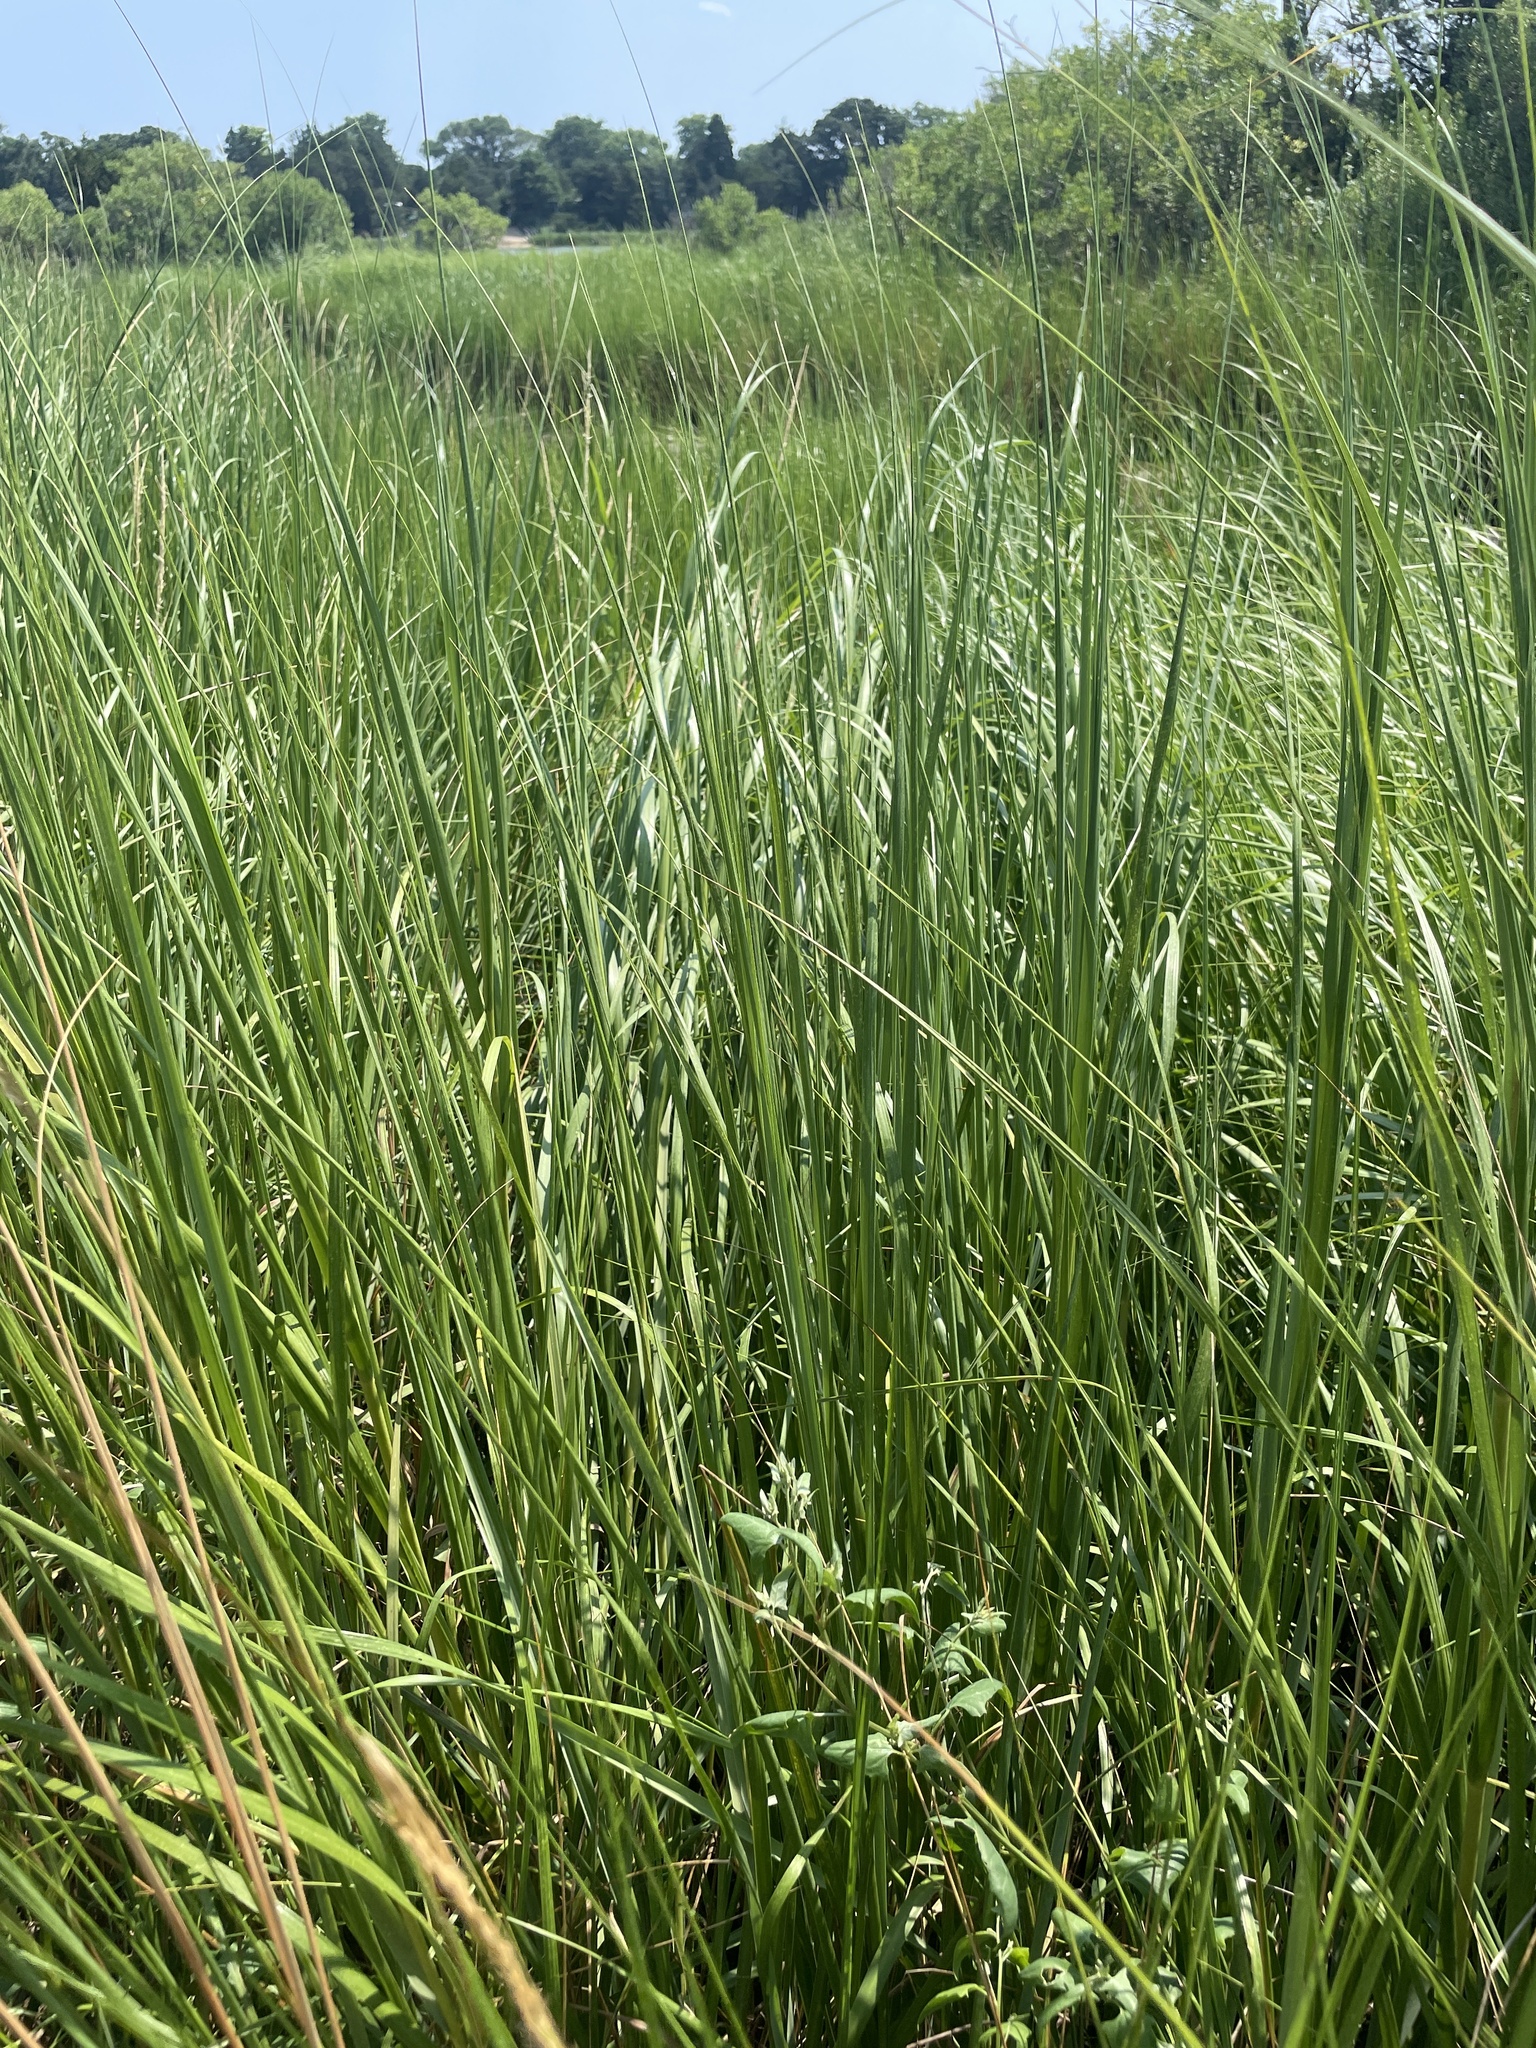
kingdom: Plantae
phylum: Tracheophyta
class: Liliopsida
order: Poales
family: Poaceae
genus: Sporobolus
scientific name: Sporobolus alterniflorus
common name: Atlantic cordgrass
